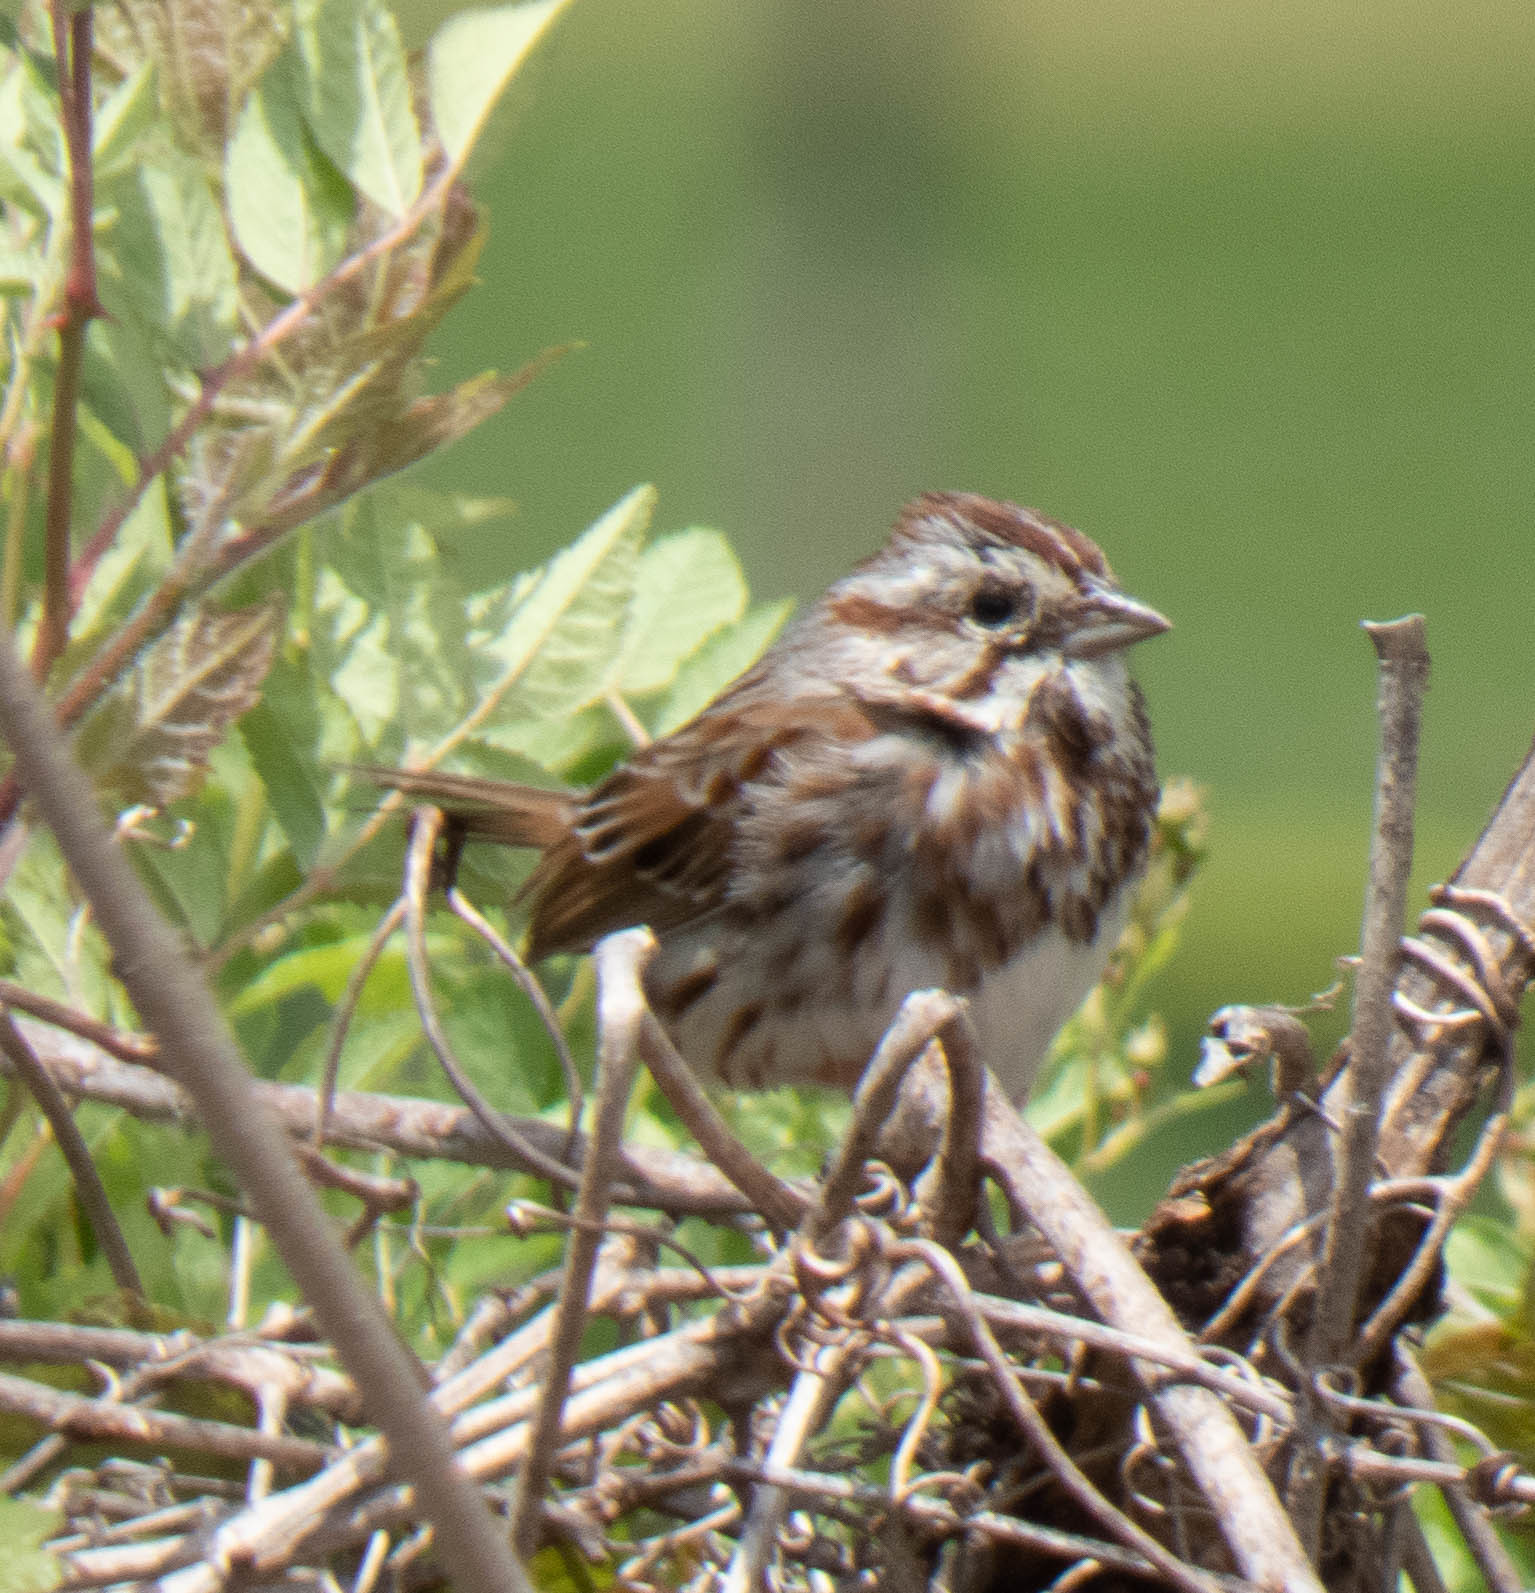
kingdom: Animalia
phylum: Chordata
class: Aves
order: Passeriformes
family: Passerellidae
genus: Melospiza
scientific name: Melospiza melodia
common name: Song sparrow
